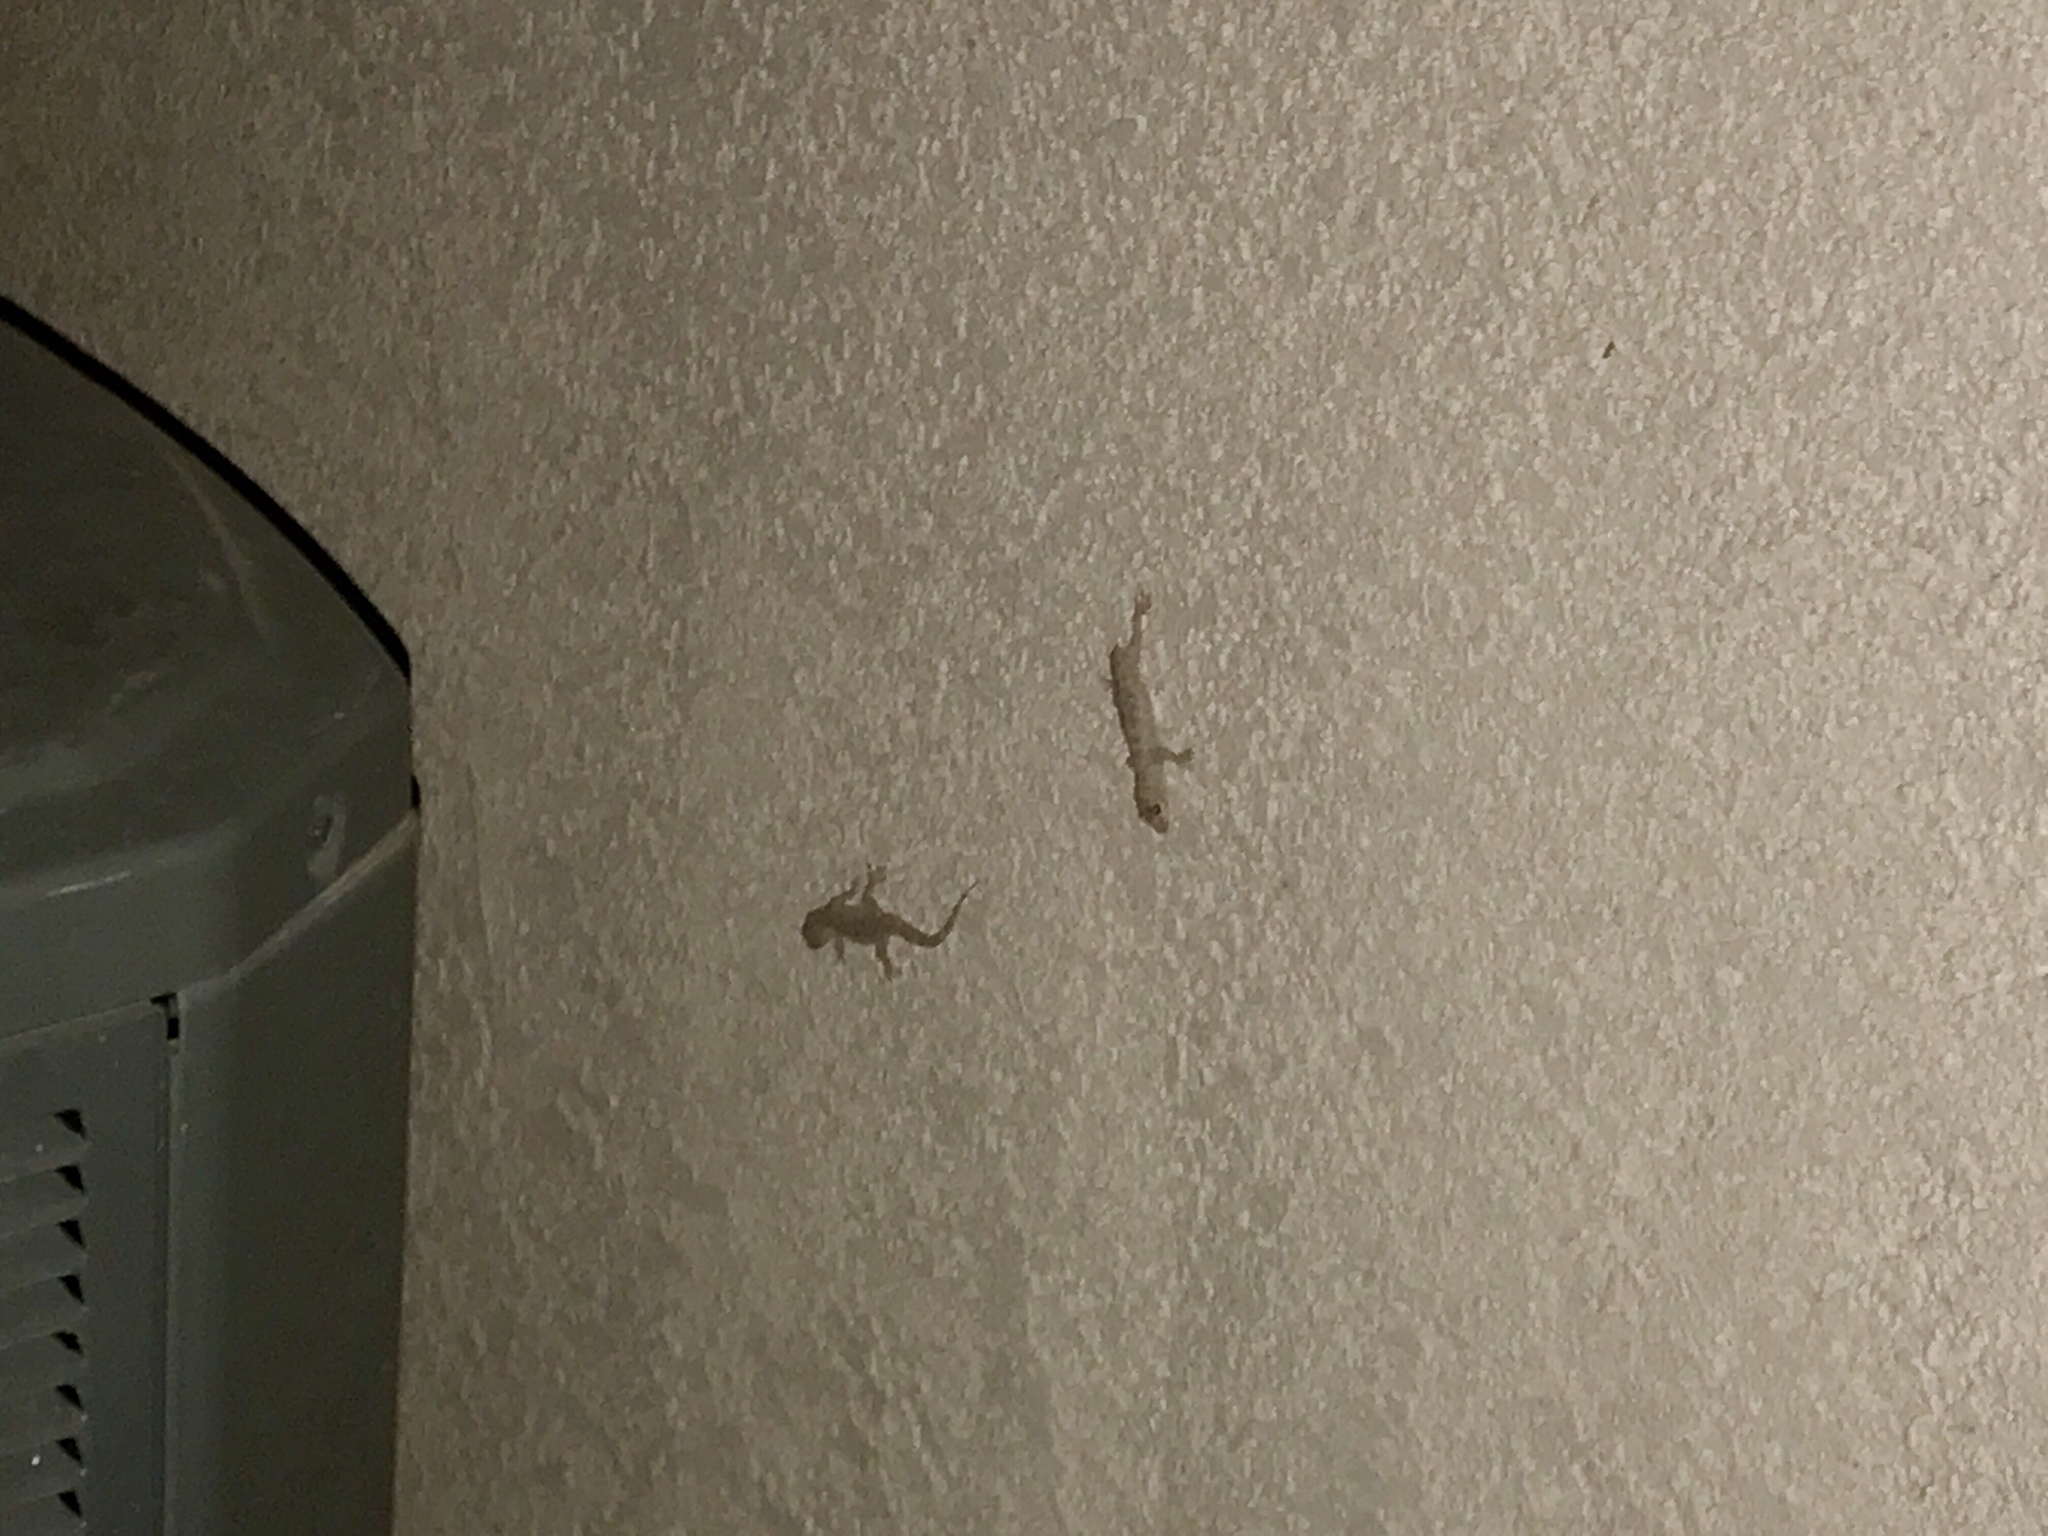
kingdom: Animalia
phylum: Chordata
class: Squamata
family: Gekkonidae
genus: Hemidactylus
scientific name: Hemidactylus turcicus
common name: Turkish gecko
